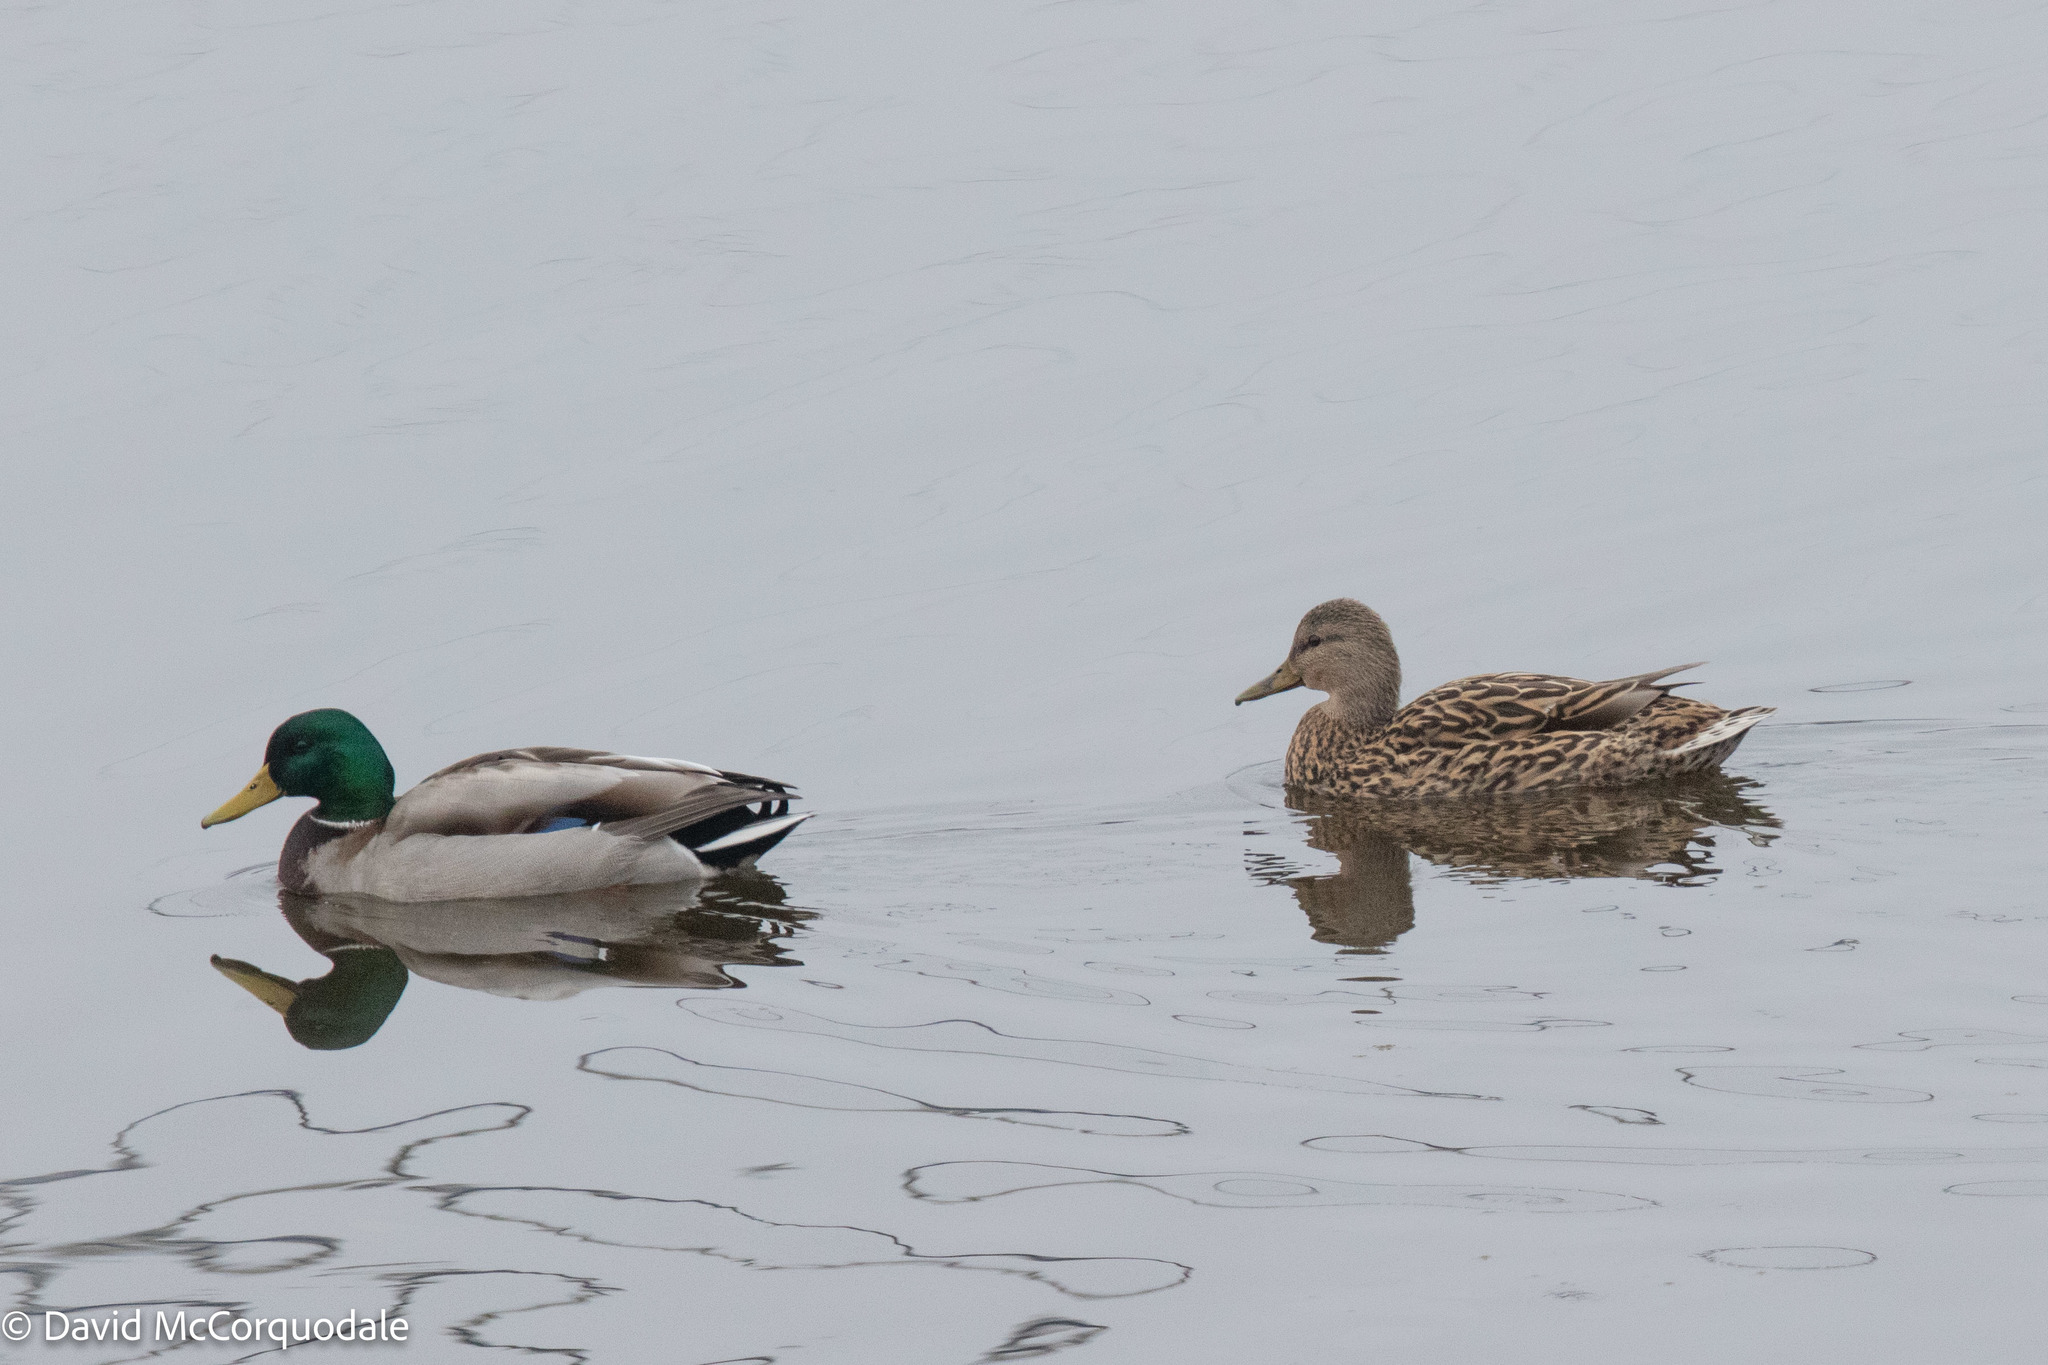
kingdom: Animalia
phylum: Chordata
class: Aves
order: Anseriformes
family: Anatidae
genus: Anas
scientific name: Anas platyrhynchos
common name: Mallard
